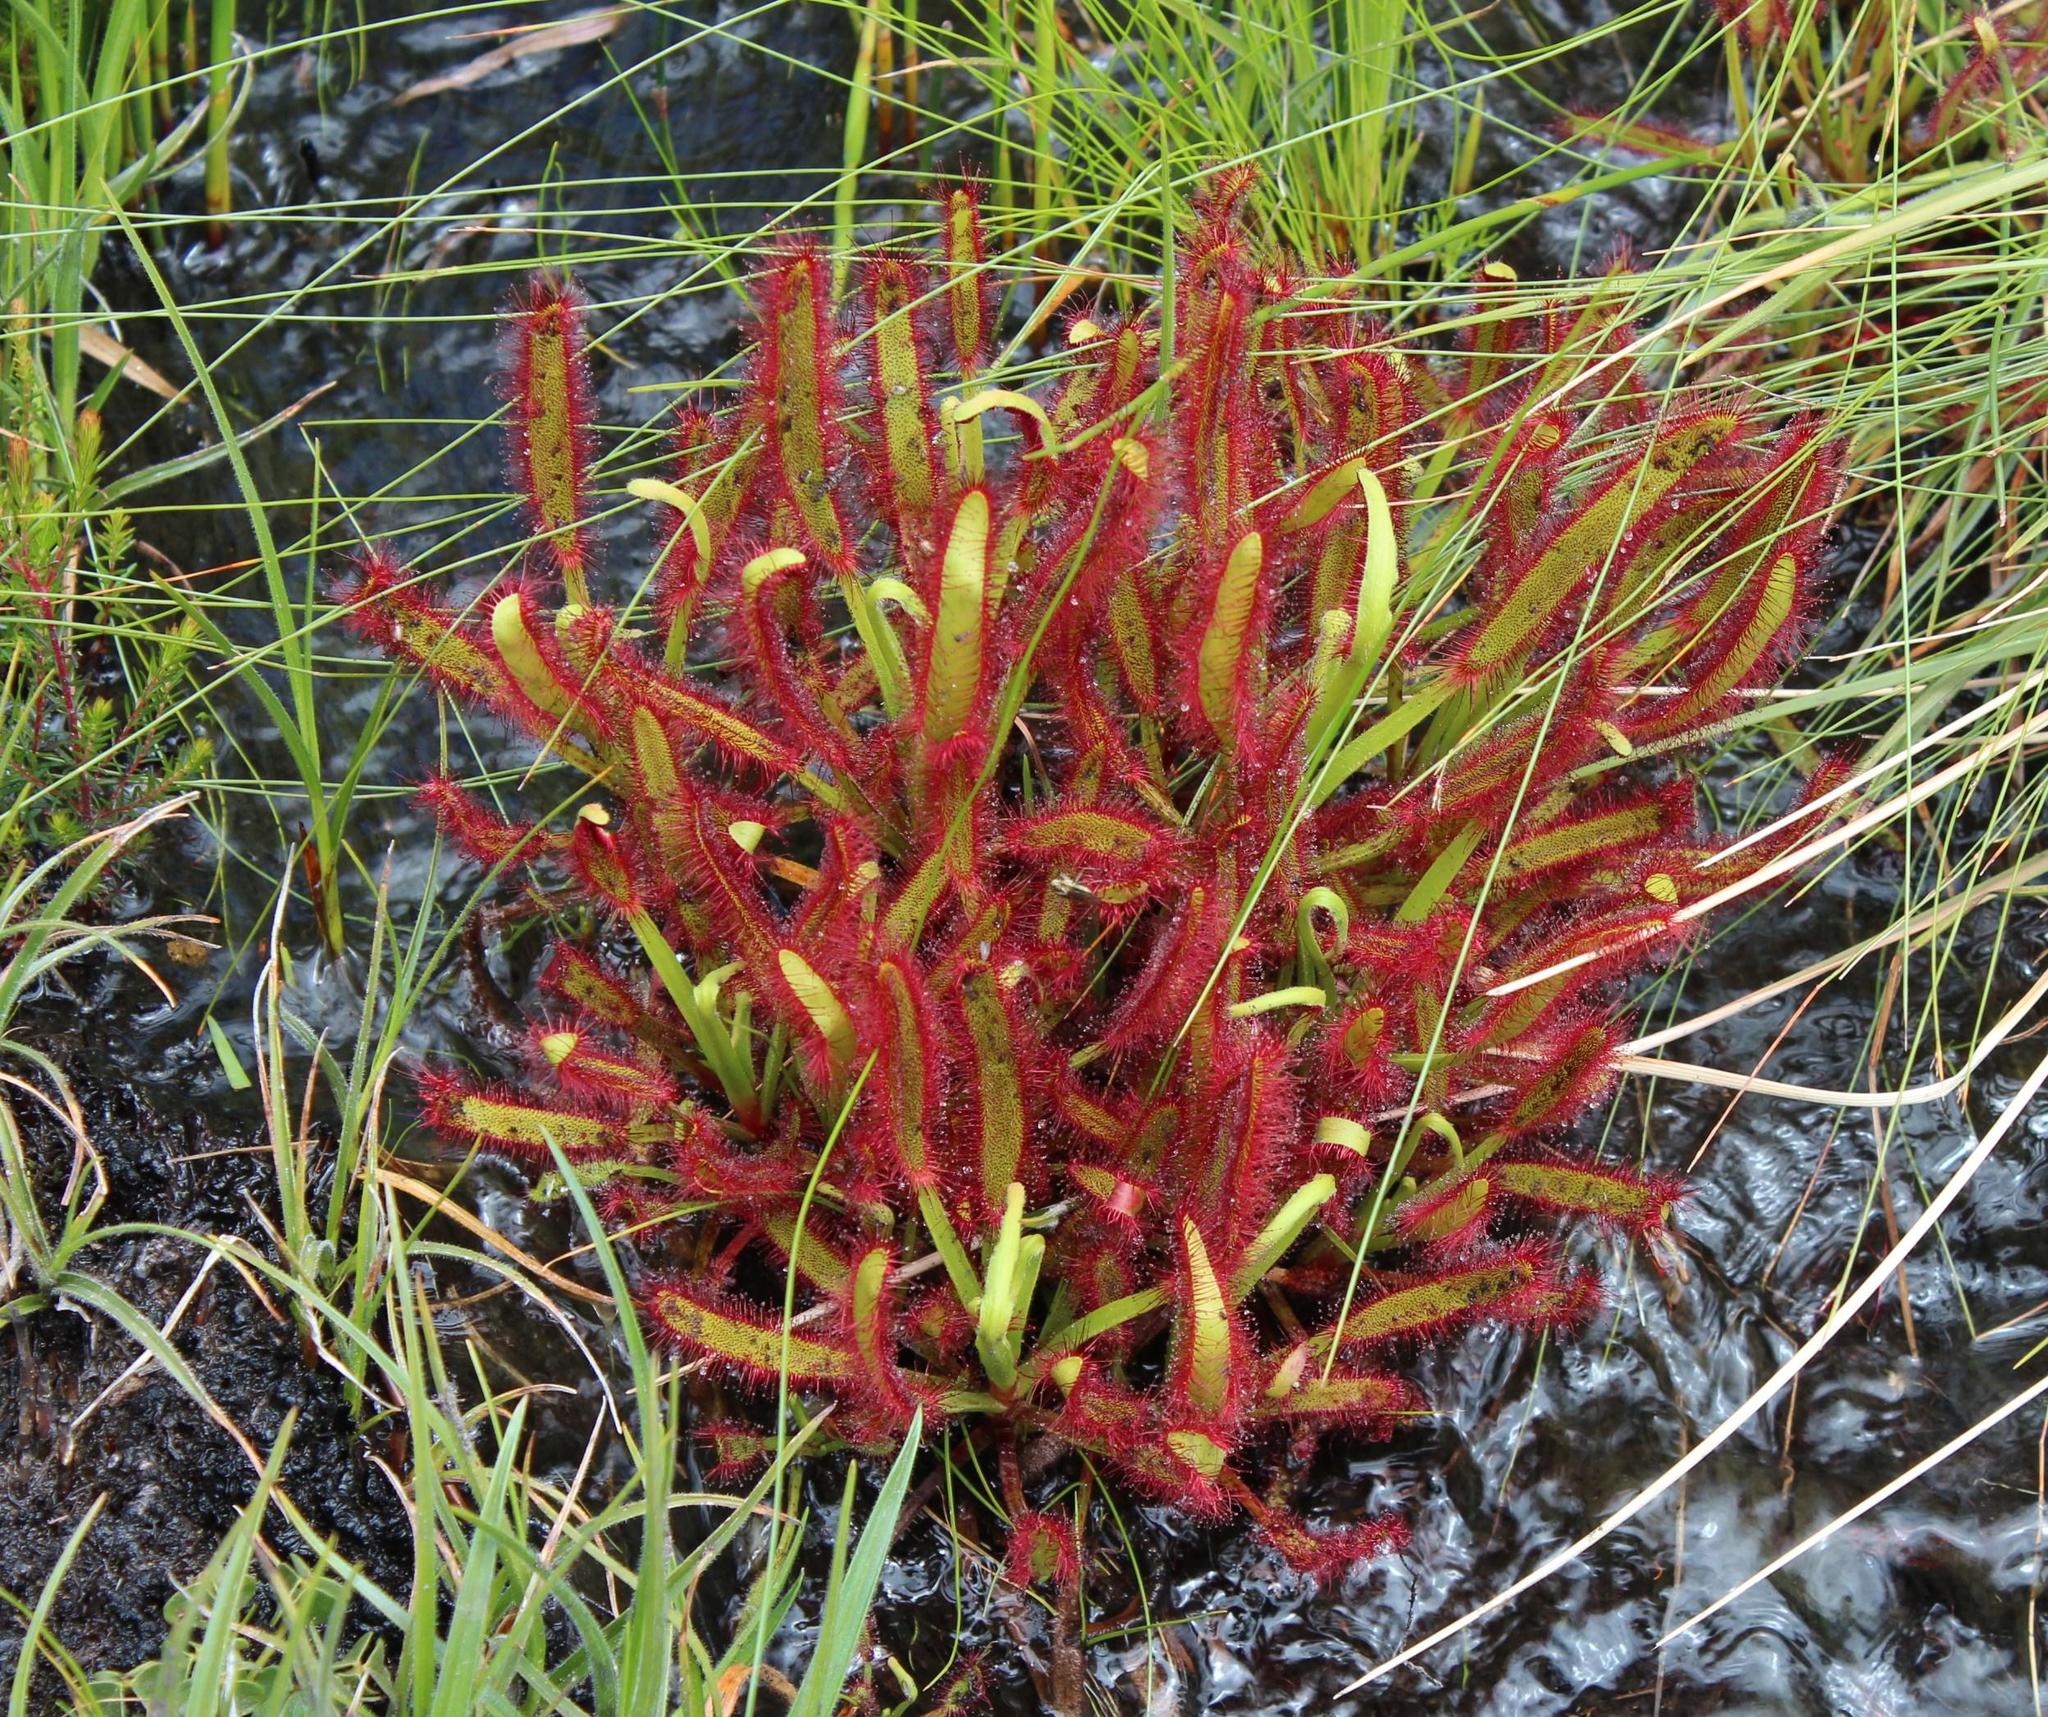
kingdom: Plantae
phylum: Tracheophyta
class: Magnoliopsida
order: Caryophyllales
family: Droseraceae
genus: Drosera
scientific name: Drosera capensis
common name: Cape sundew
